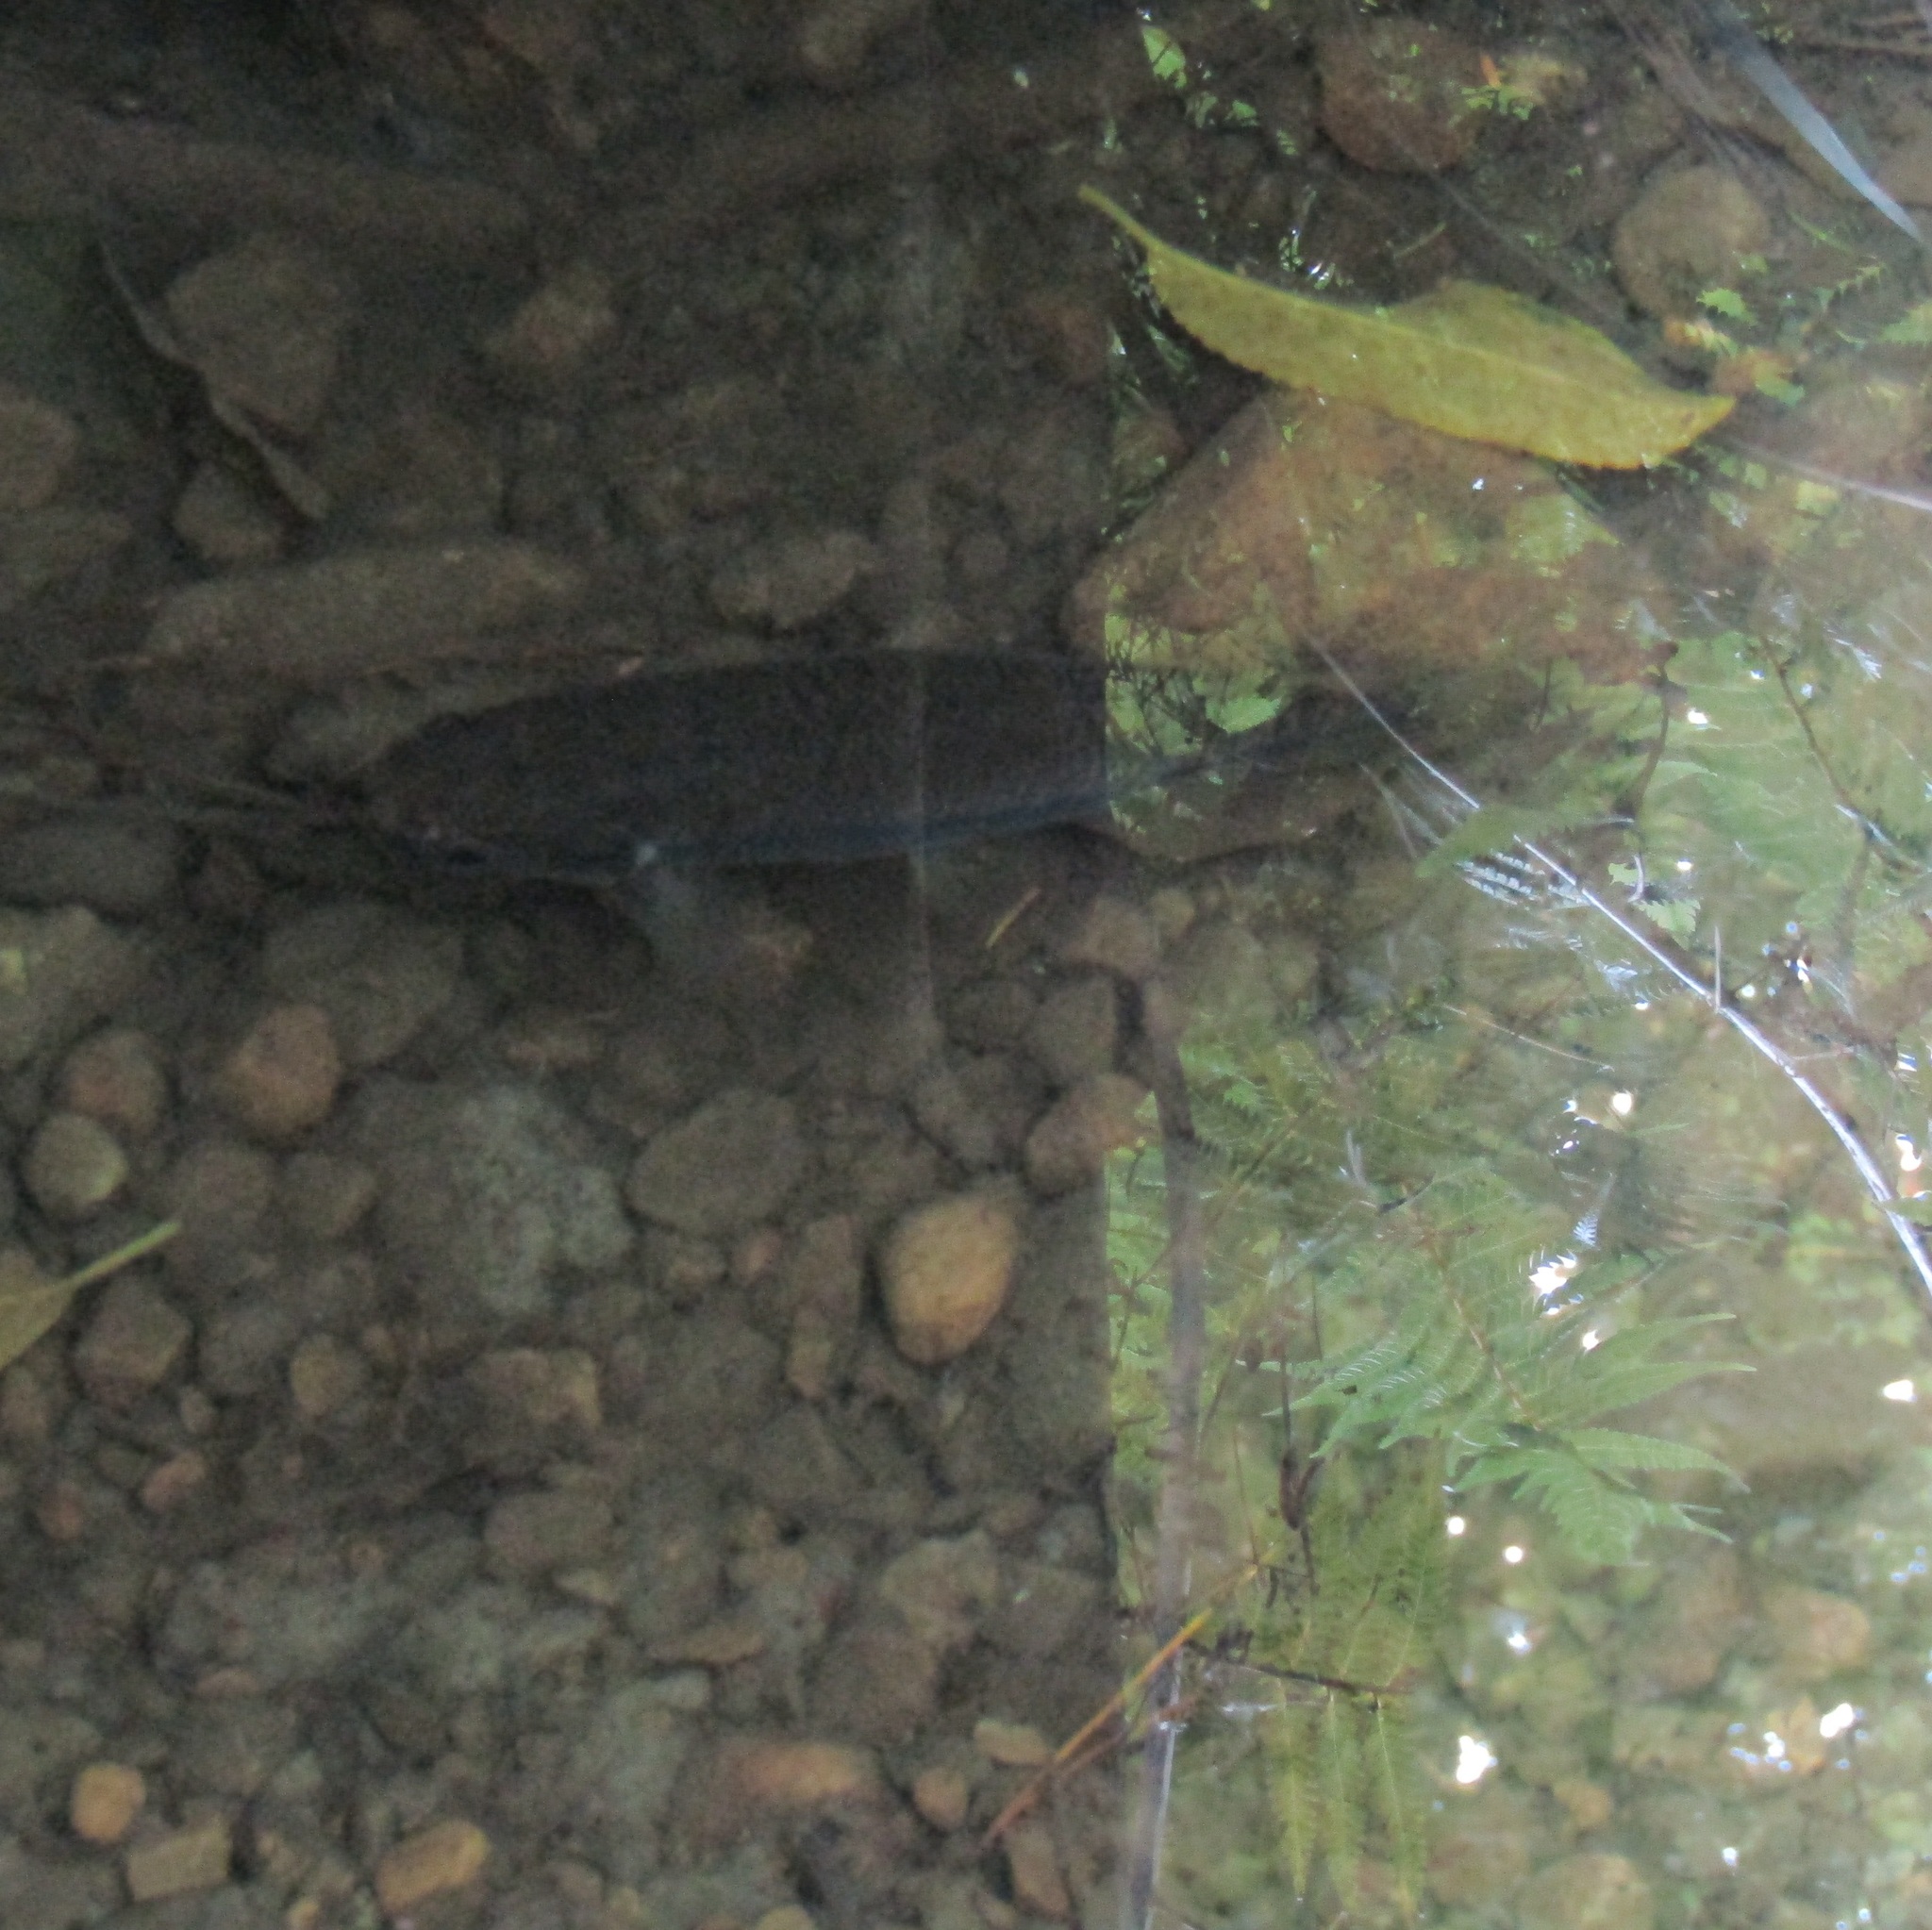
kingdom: Animalia
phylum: Chordata
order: Osmeriformes
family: Galaxiidae
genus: Galaxias
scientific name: Galaxias fasciatus
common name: Banded kokopu
